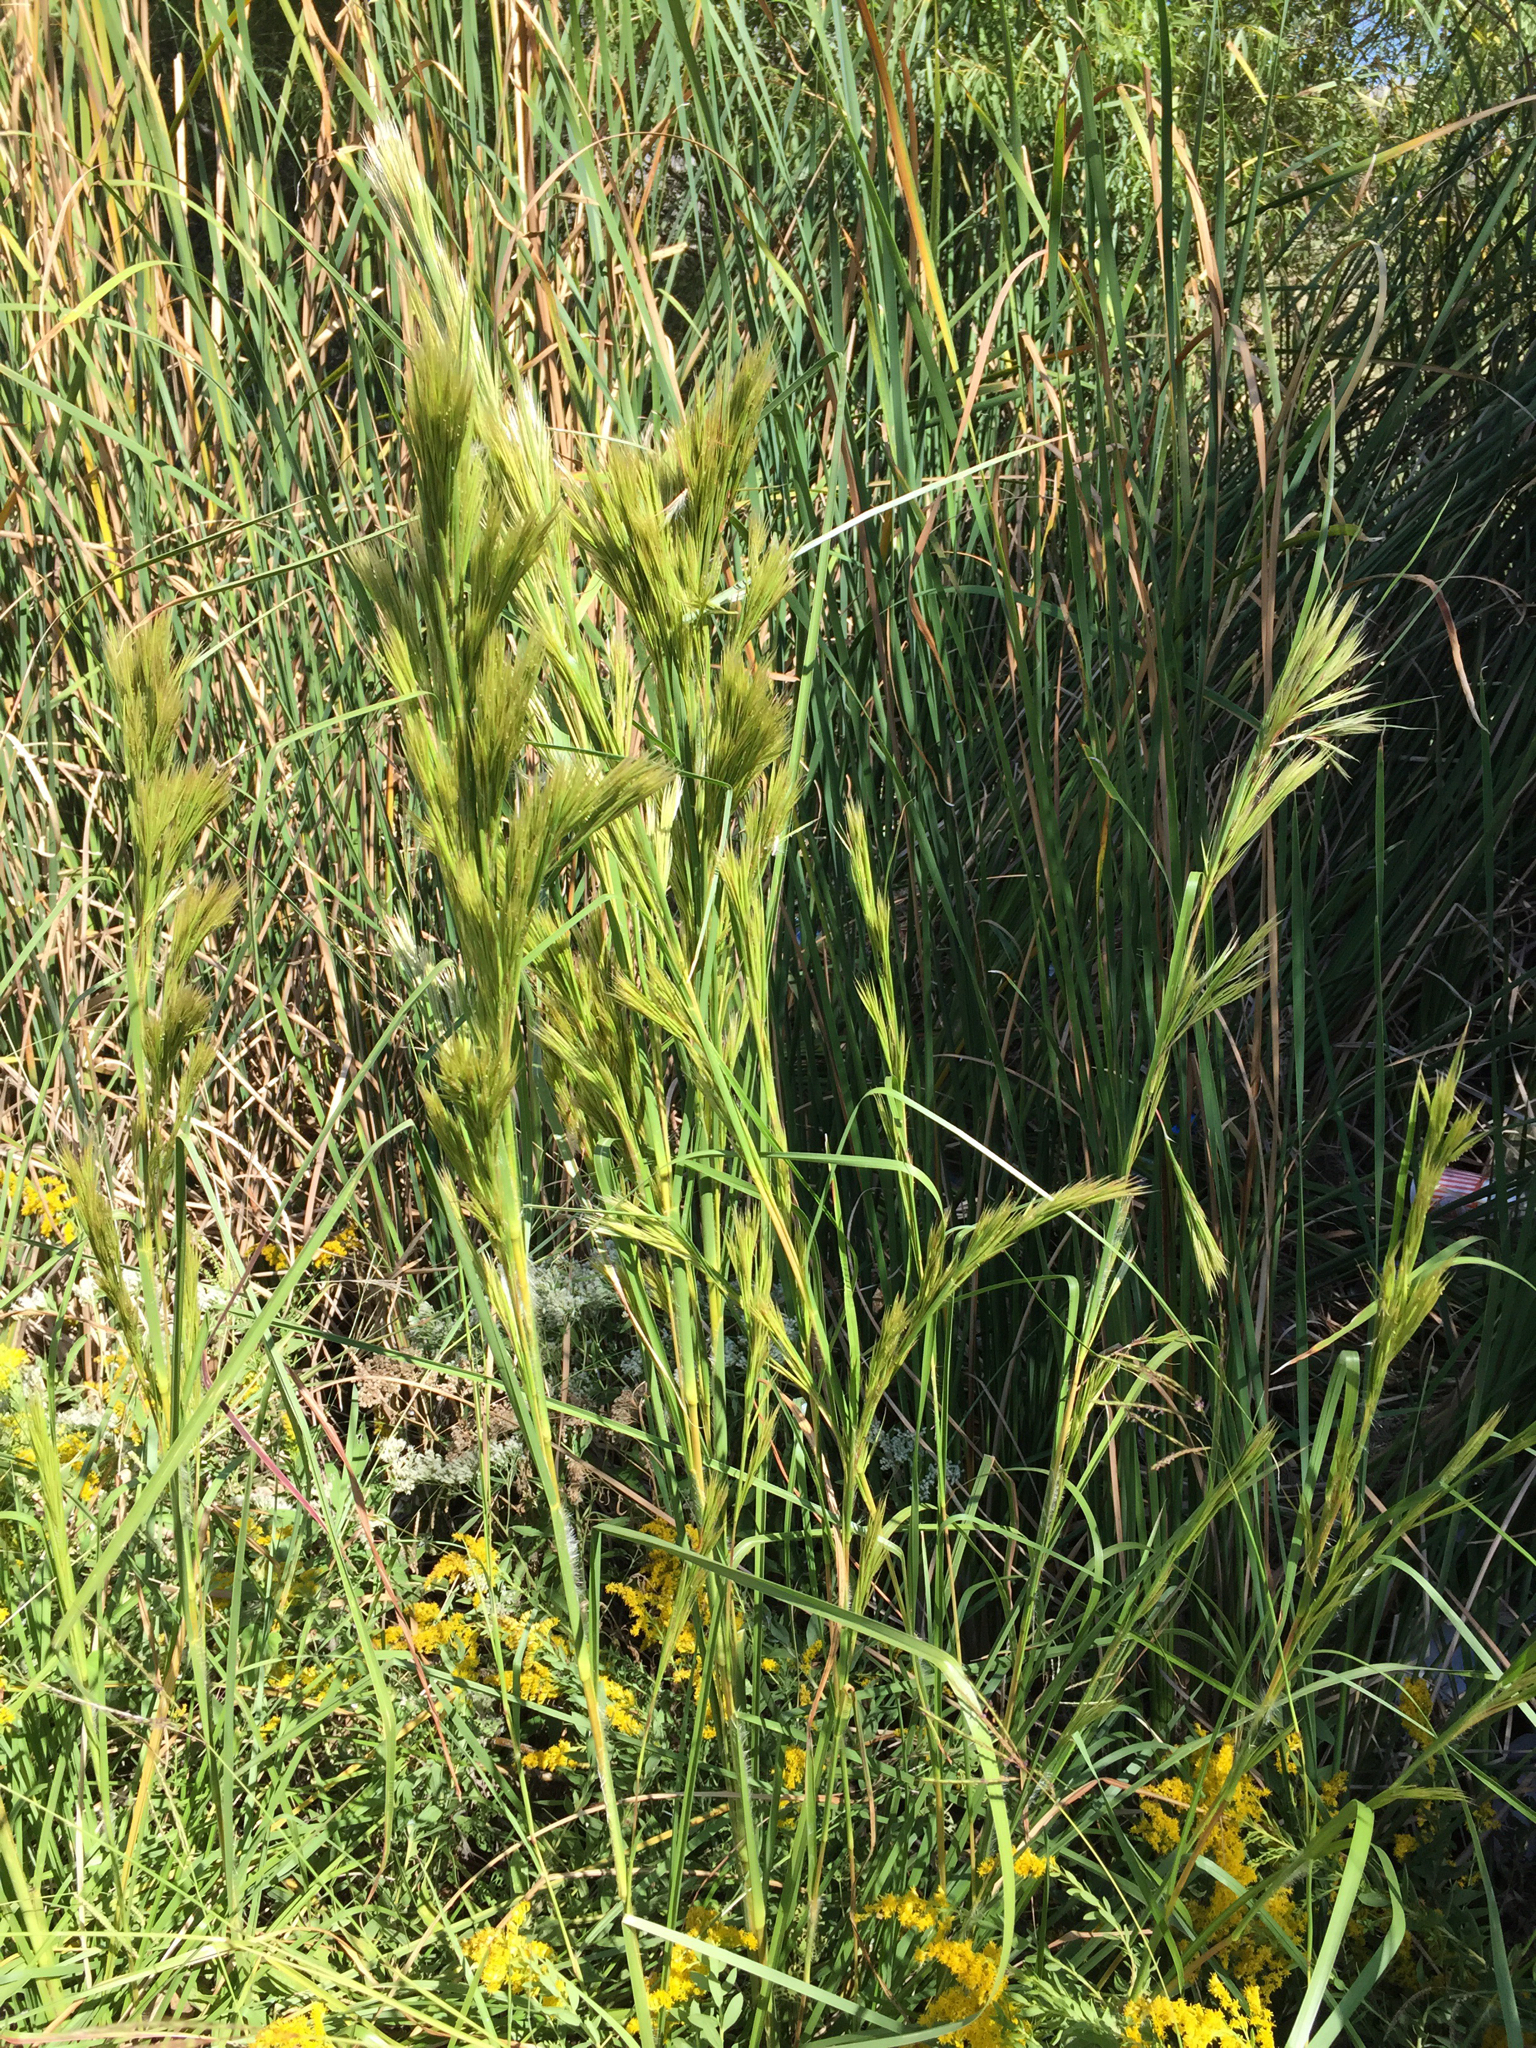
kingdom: Plantae
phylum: Tracheophyta
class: Liliopsida
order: Poales
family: Poaceae
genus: Andropogon
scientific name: Andropogon tenuispatheus
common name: Bushy bluestem
